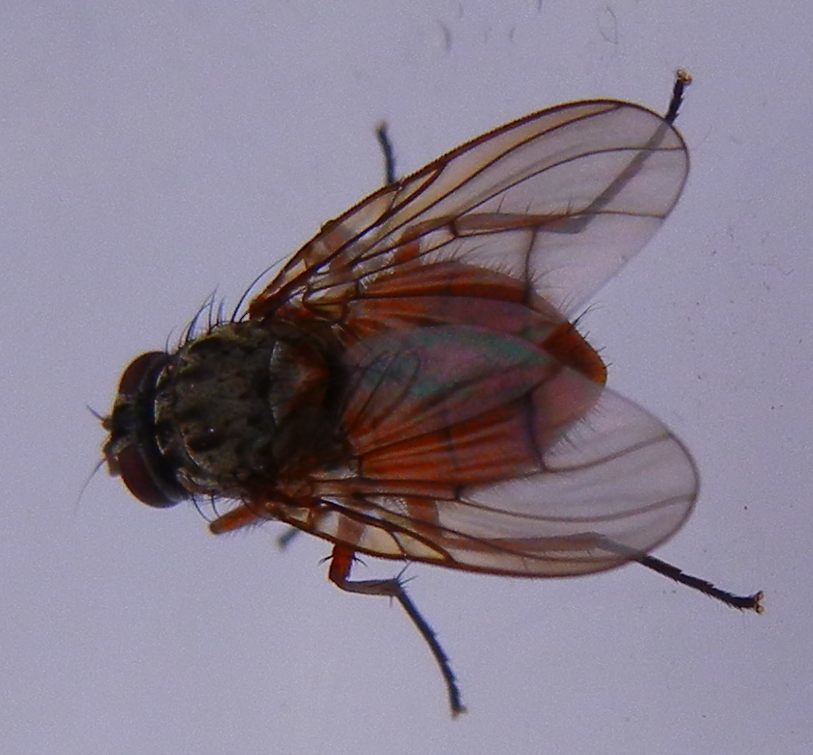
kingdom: Animalia
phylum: Arthropoda
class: Insecta
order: Diptera
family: Muscidae
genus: Phaonia
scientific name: Phaonia subventa
